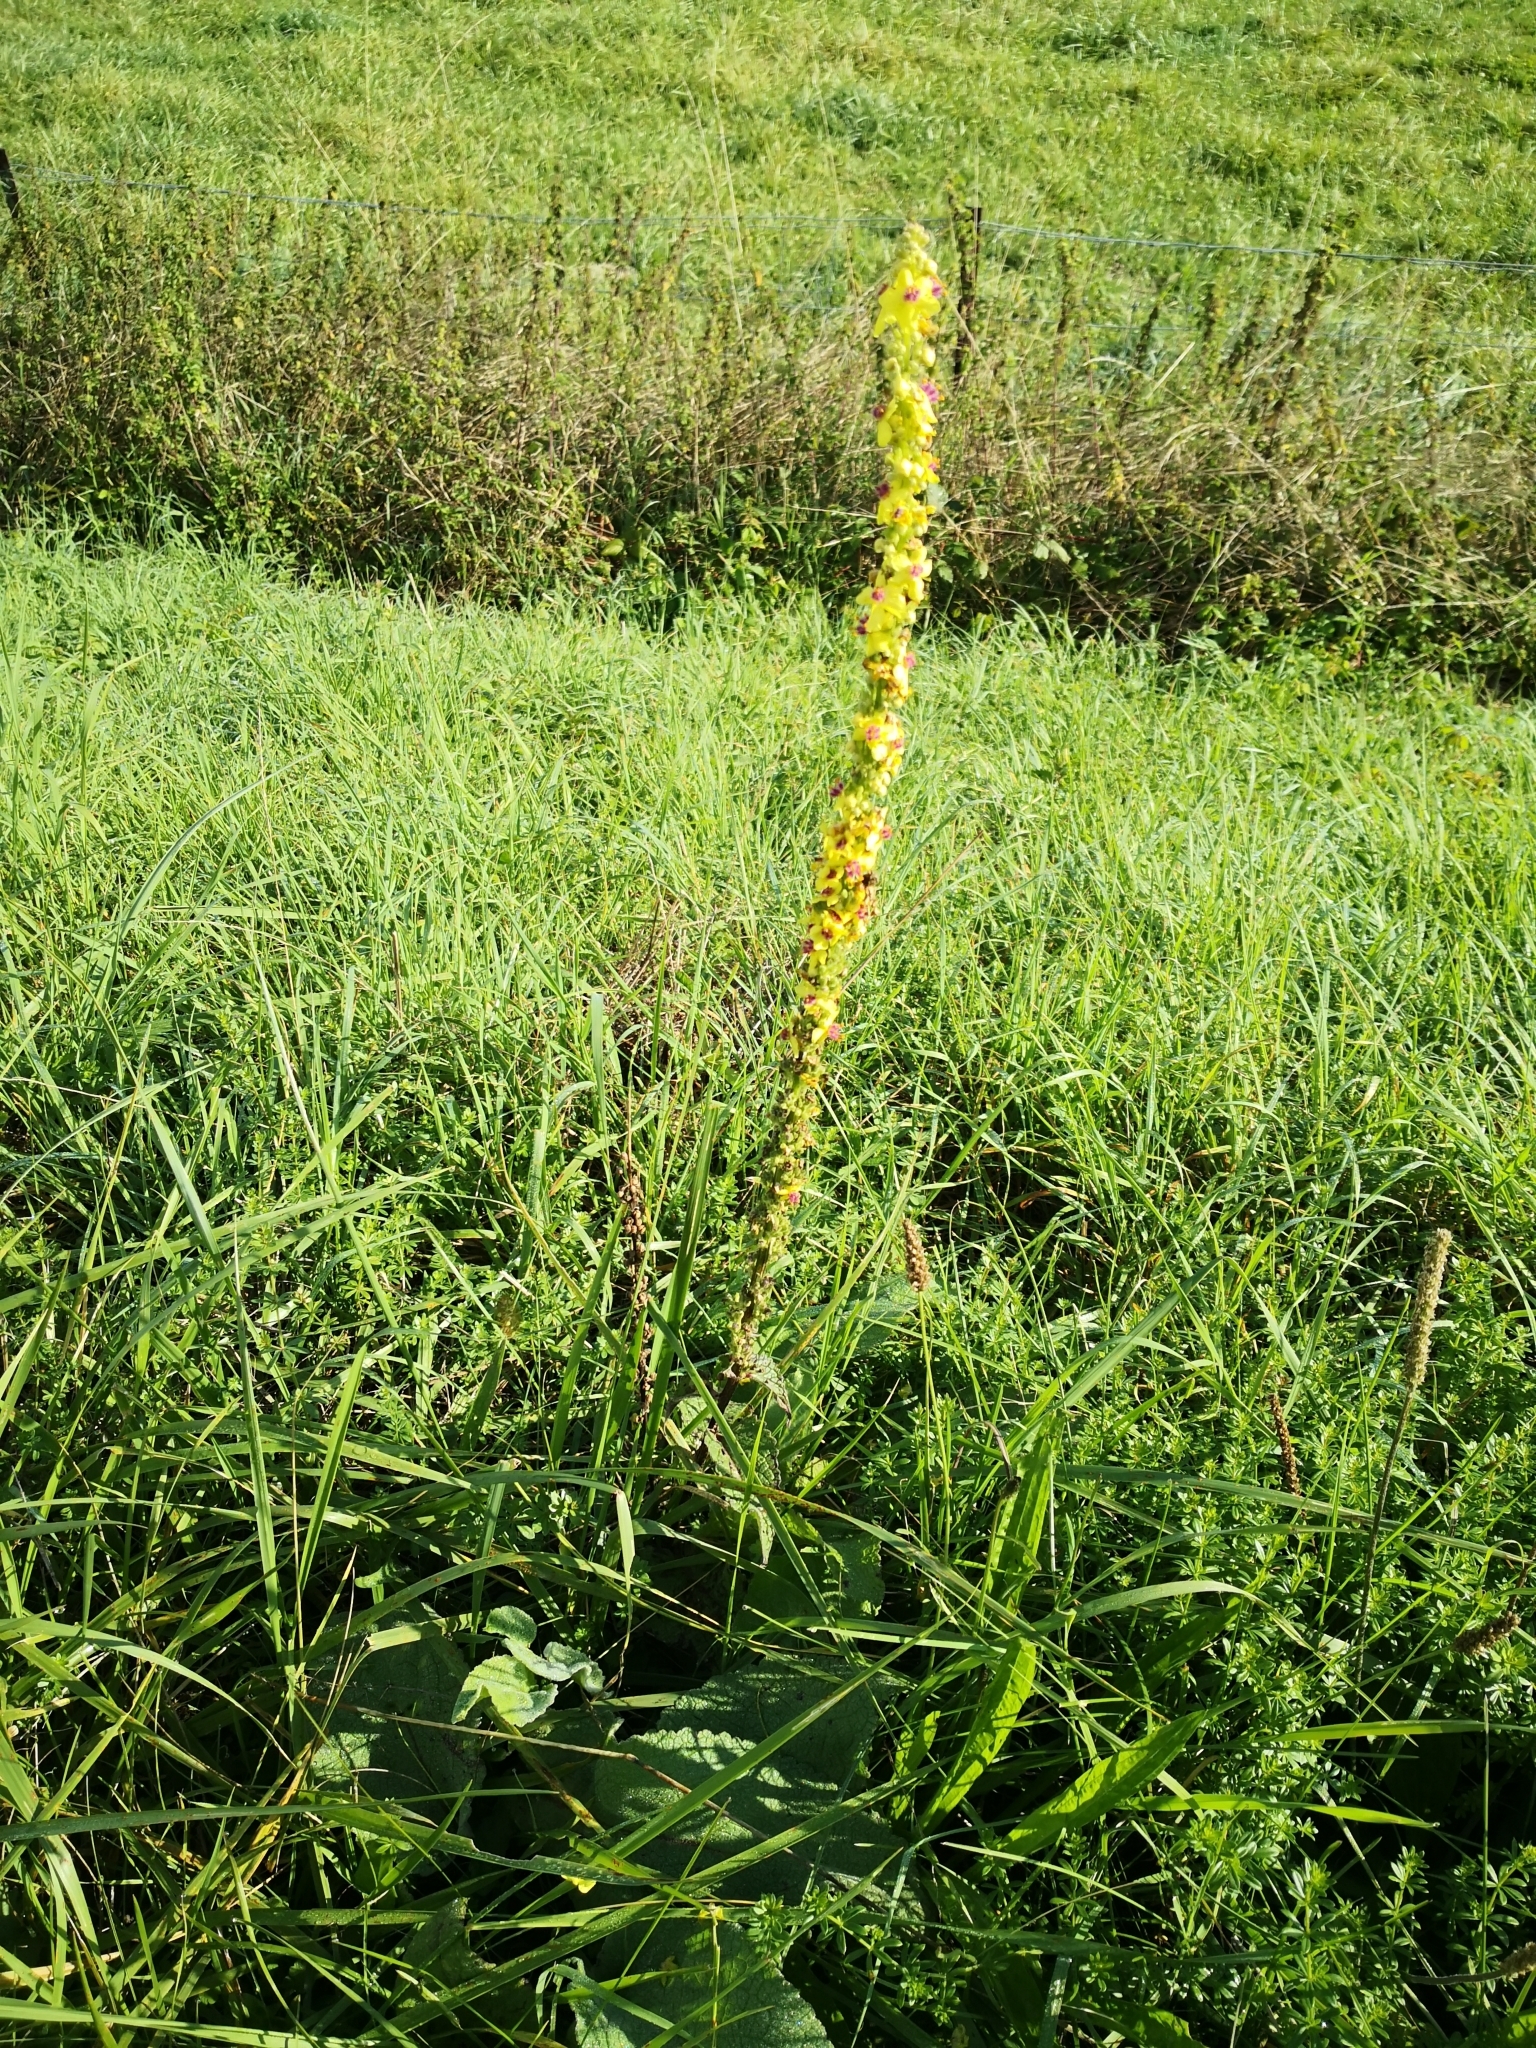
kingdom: Plantae
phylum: Tracheophyta
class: Magnoliopsida
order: Lamiales
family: Scrophulariaceae
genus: Verbascum
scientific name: Verbascum nigrum
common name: Dark mullein
